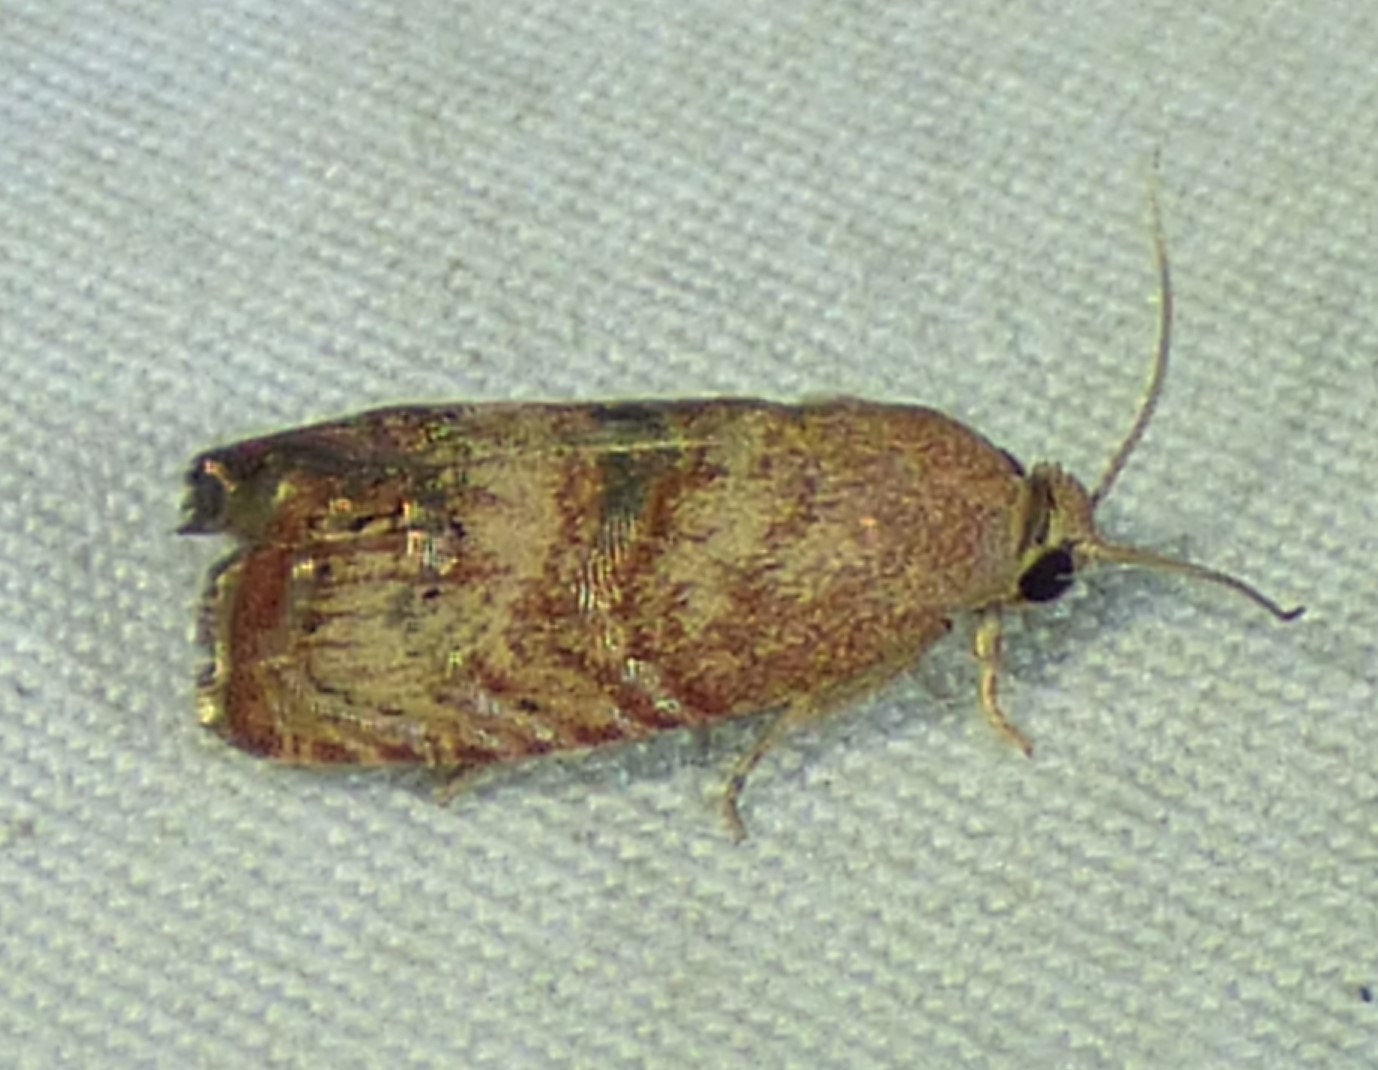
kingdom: Animalia
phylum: Arthropoda
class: Insecta
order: Lepidoptera
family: Tortricidae
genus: Cydia
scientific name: Cydia latiferreana
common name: Filbertworm moth
